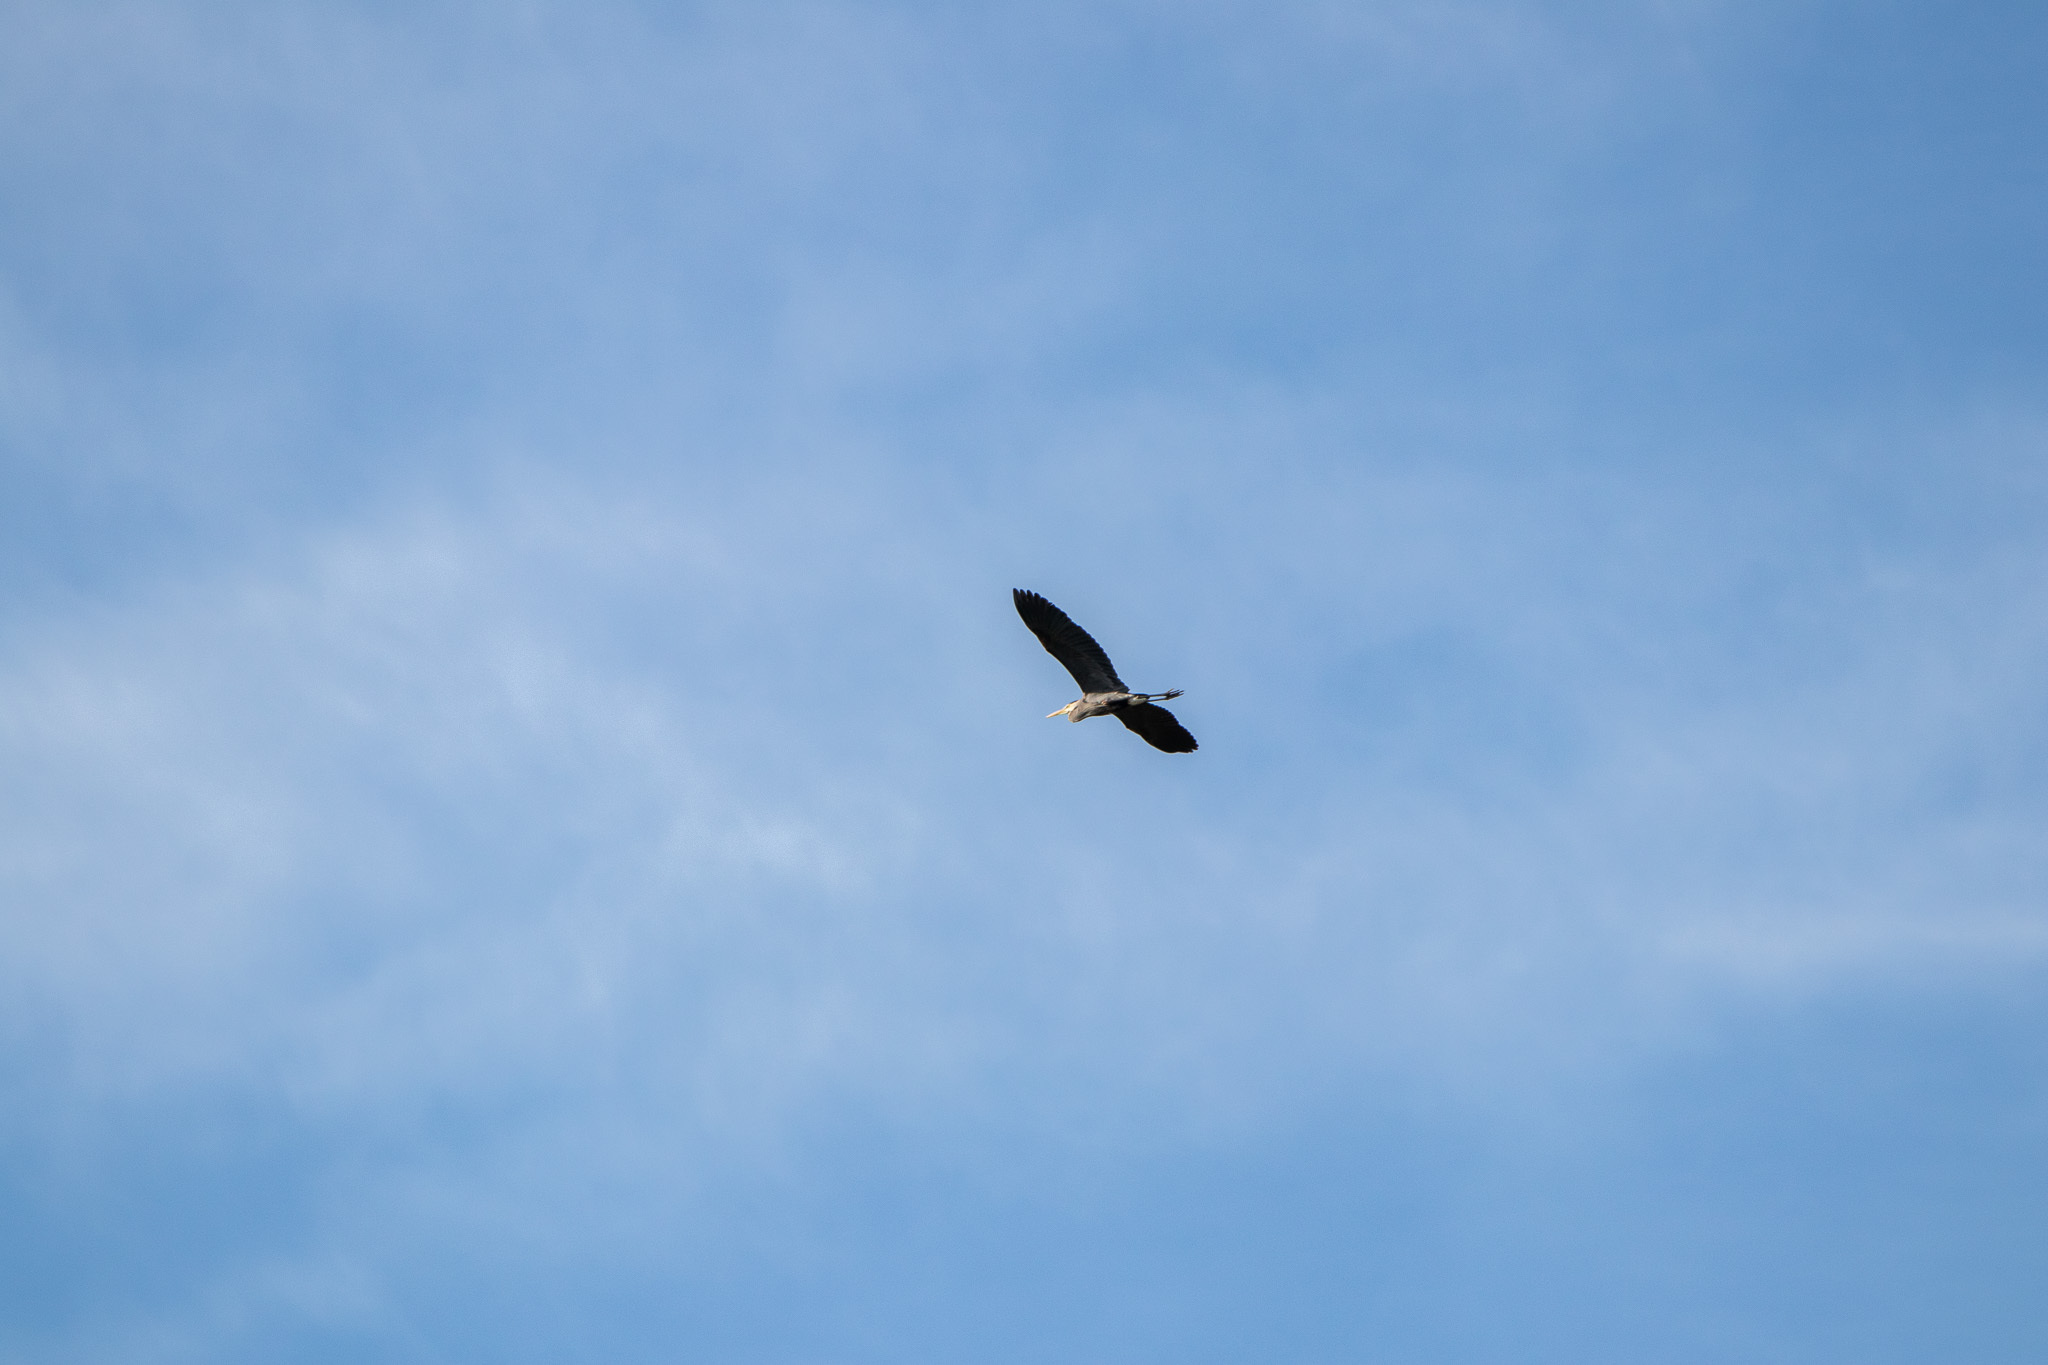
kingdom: Animalia
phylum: Chordata
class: Aves
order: Pelecaniformes
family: Ardeidae
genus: Ardea
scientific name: Ardea herodias
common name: Great blue heron
